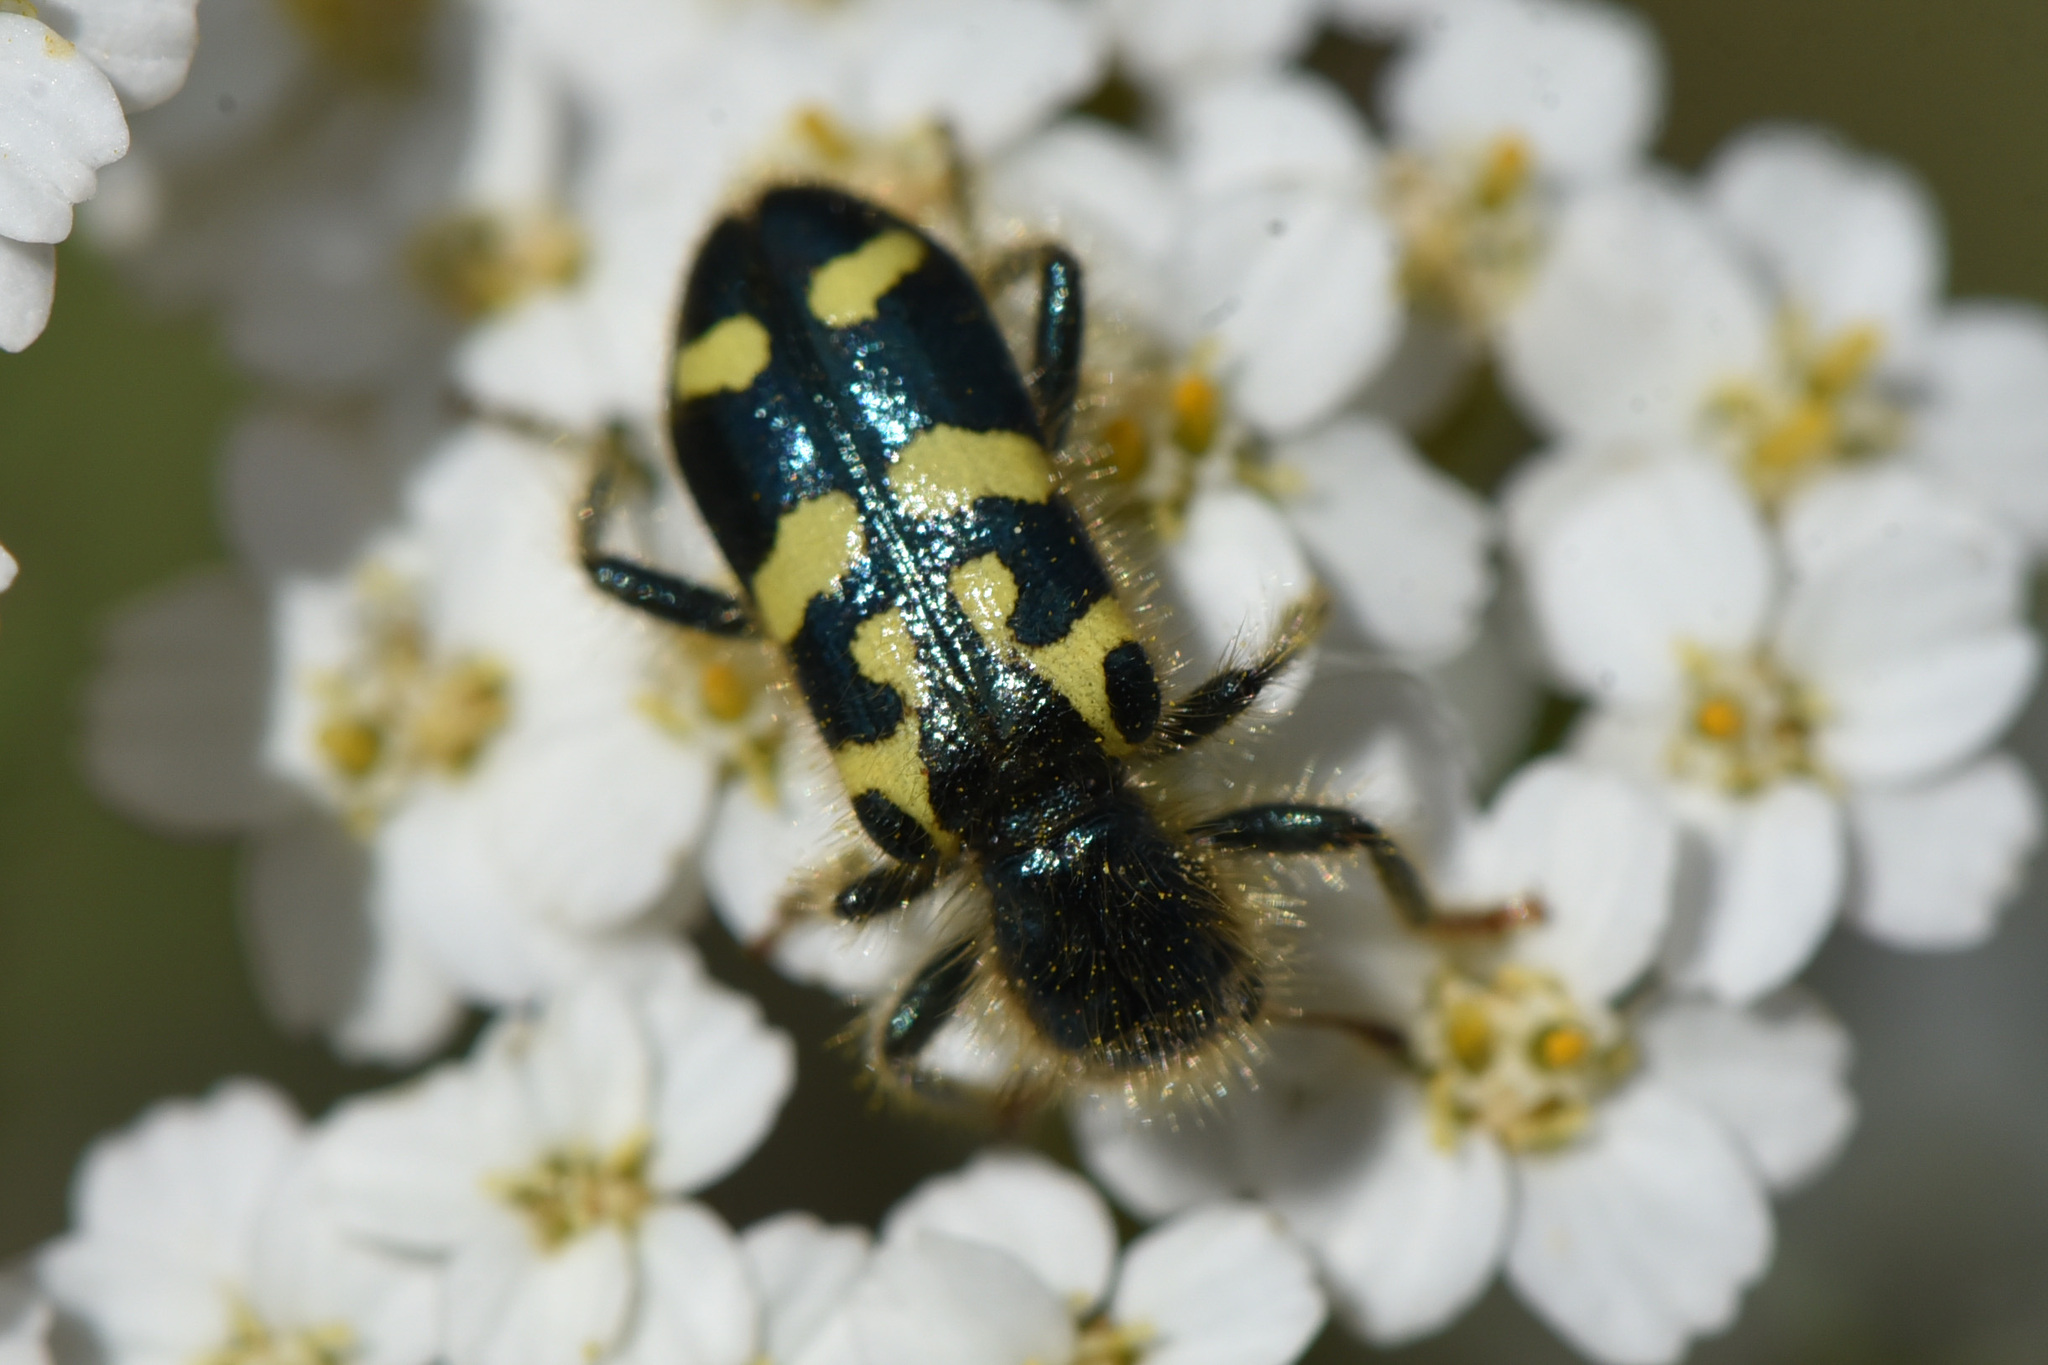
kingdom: Animalia
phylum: Arthropoda
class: Insecta
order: Coleoptera
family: Cleridae
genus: Trichodes
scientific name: Trichodes ornatus
